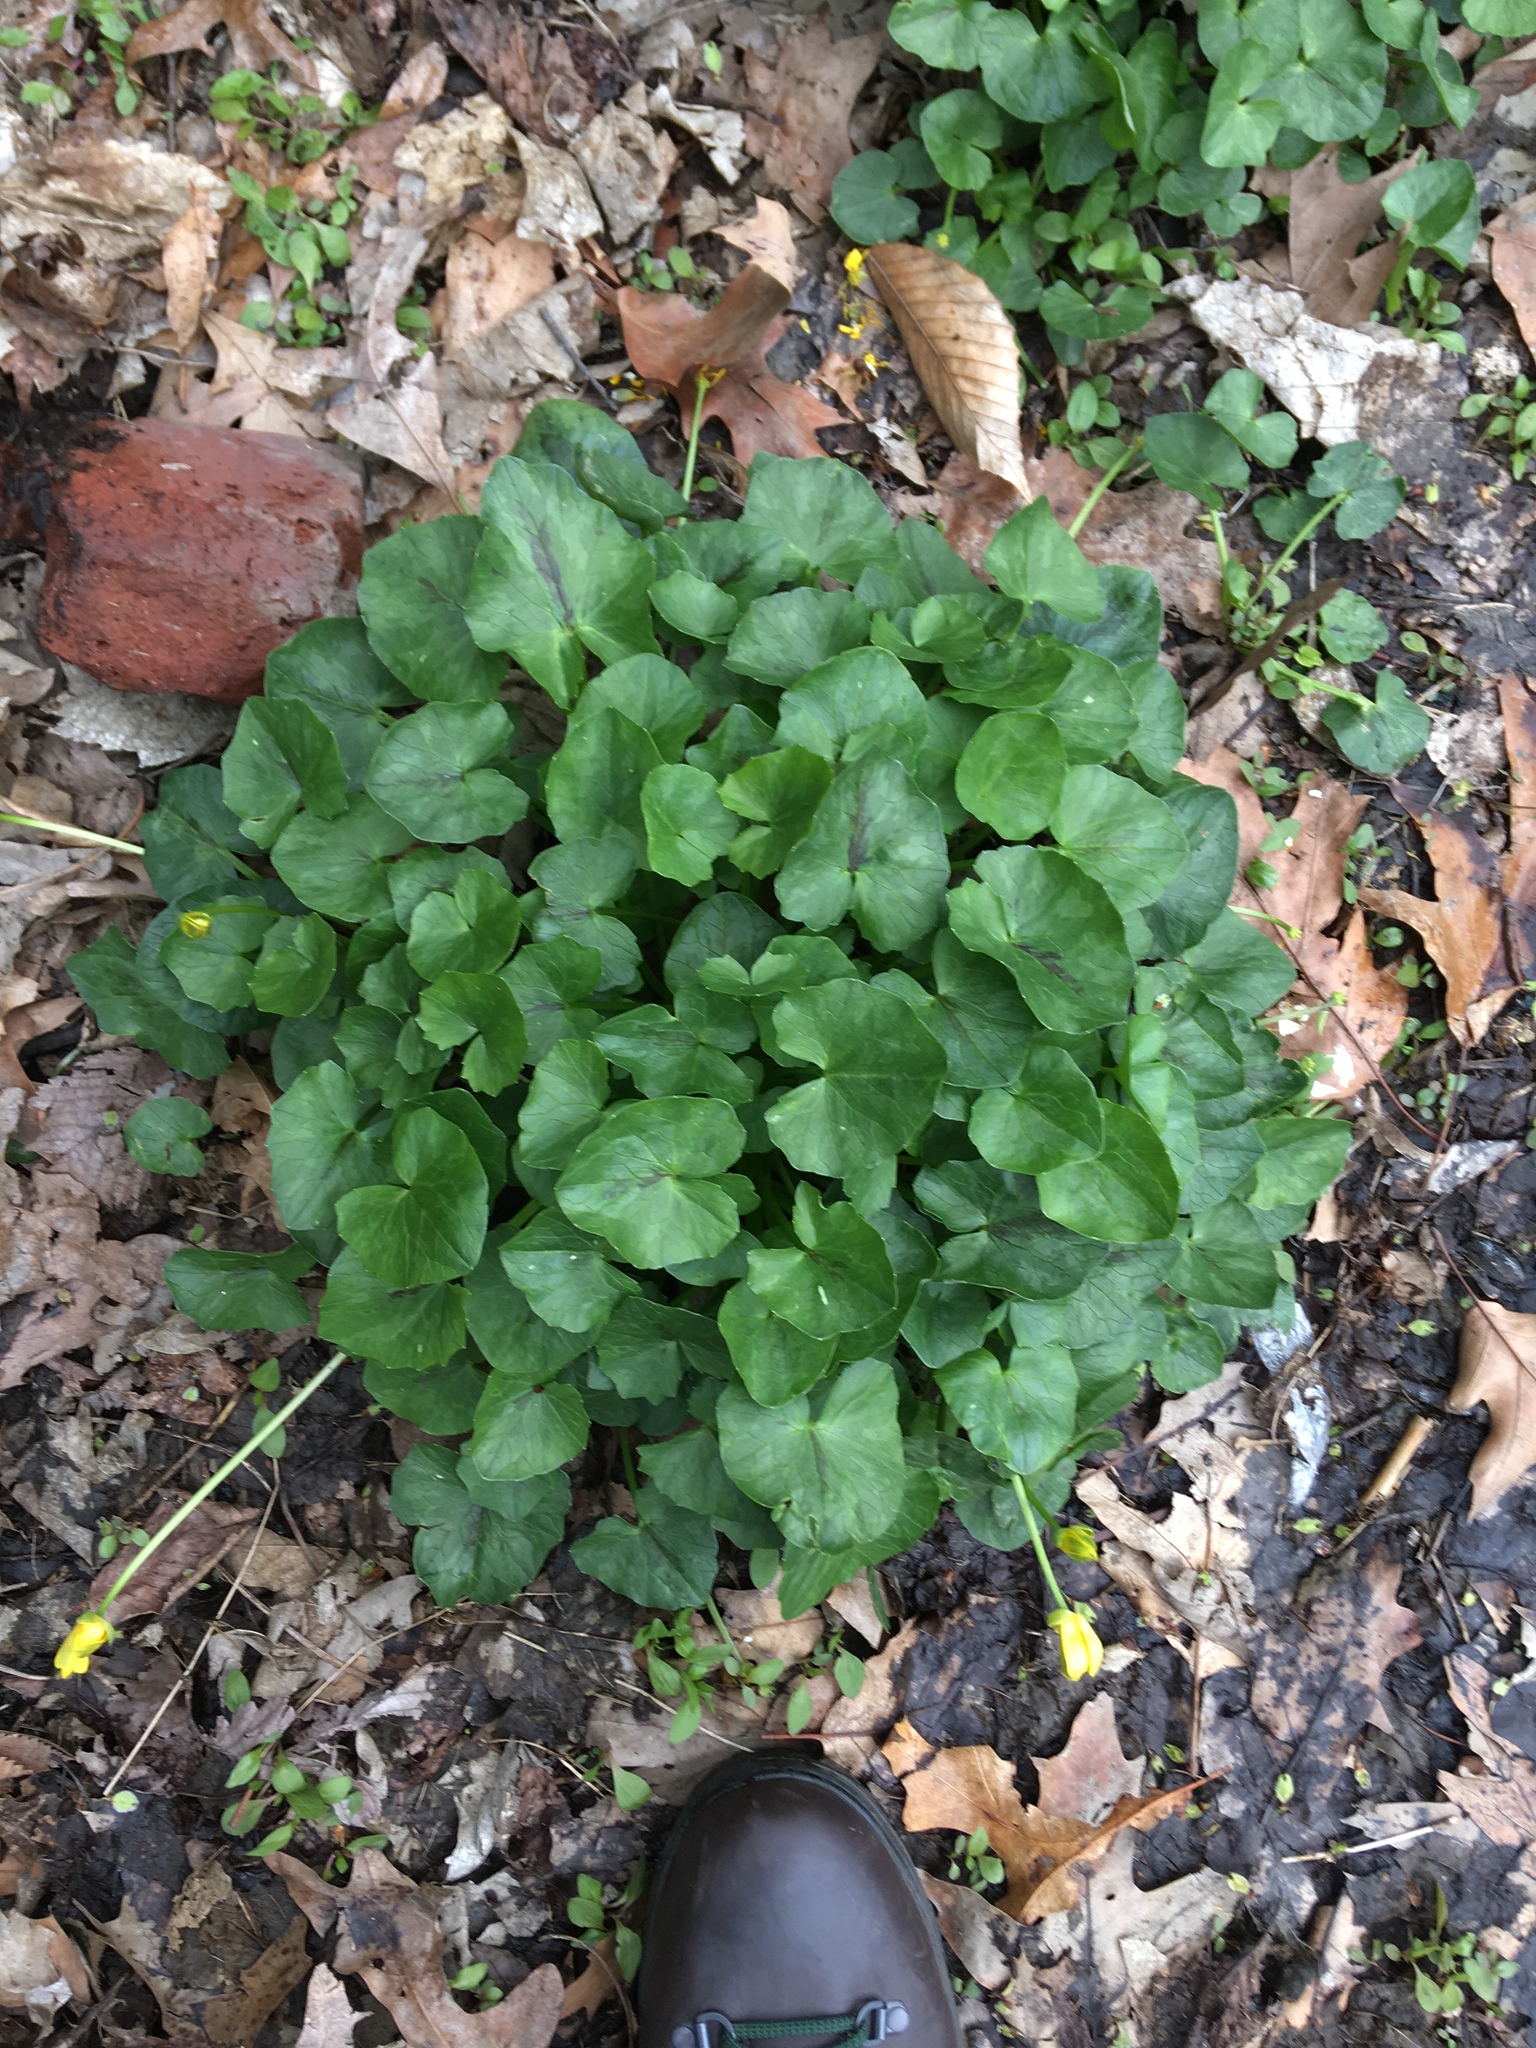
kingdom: Plantae
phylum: Tracheophyta
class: Magnoliopsida
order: Ranunculales
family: Ranunculaceae
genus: Ficaria
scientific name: Ficaria verna
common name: Lesser celandine
